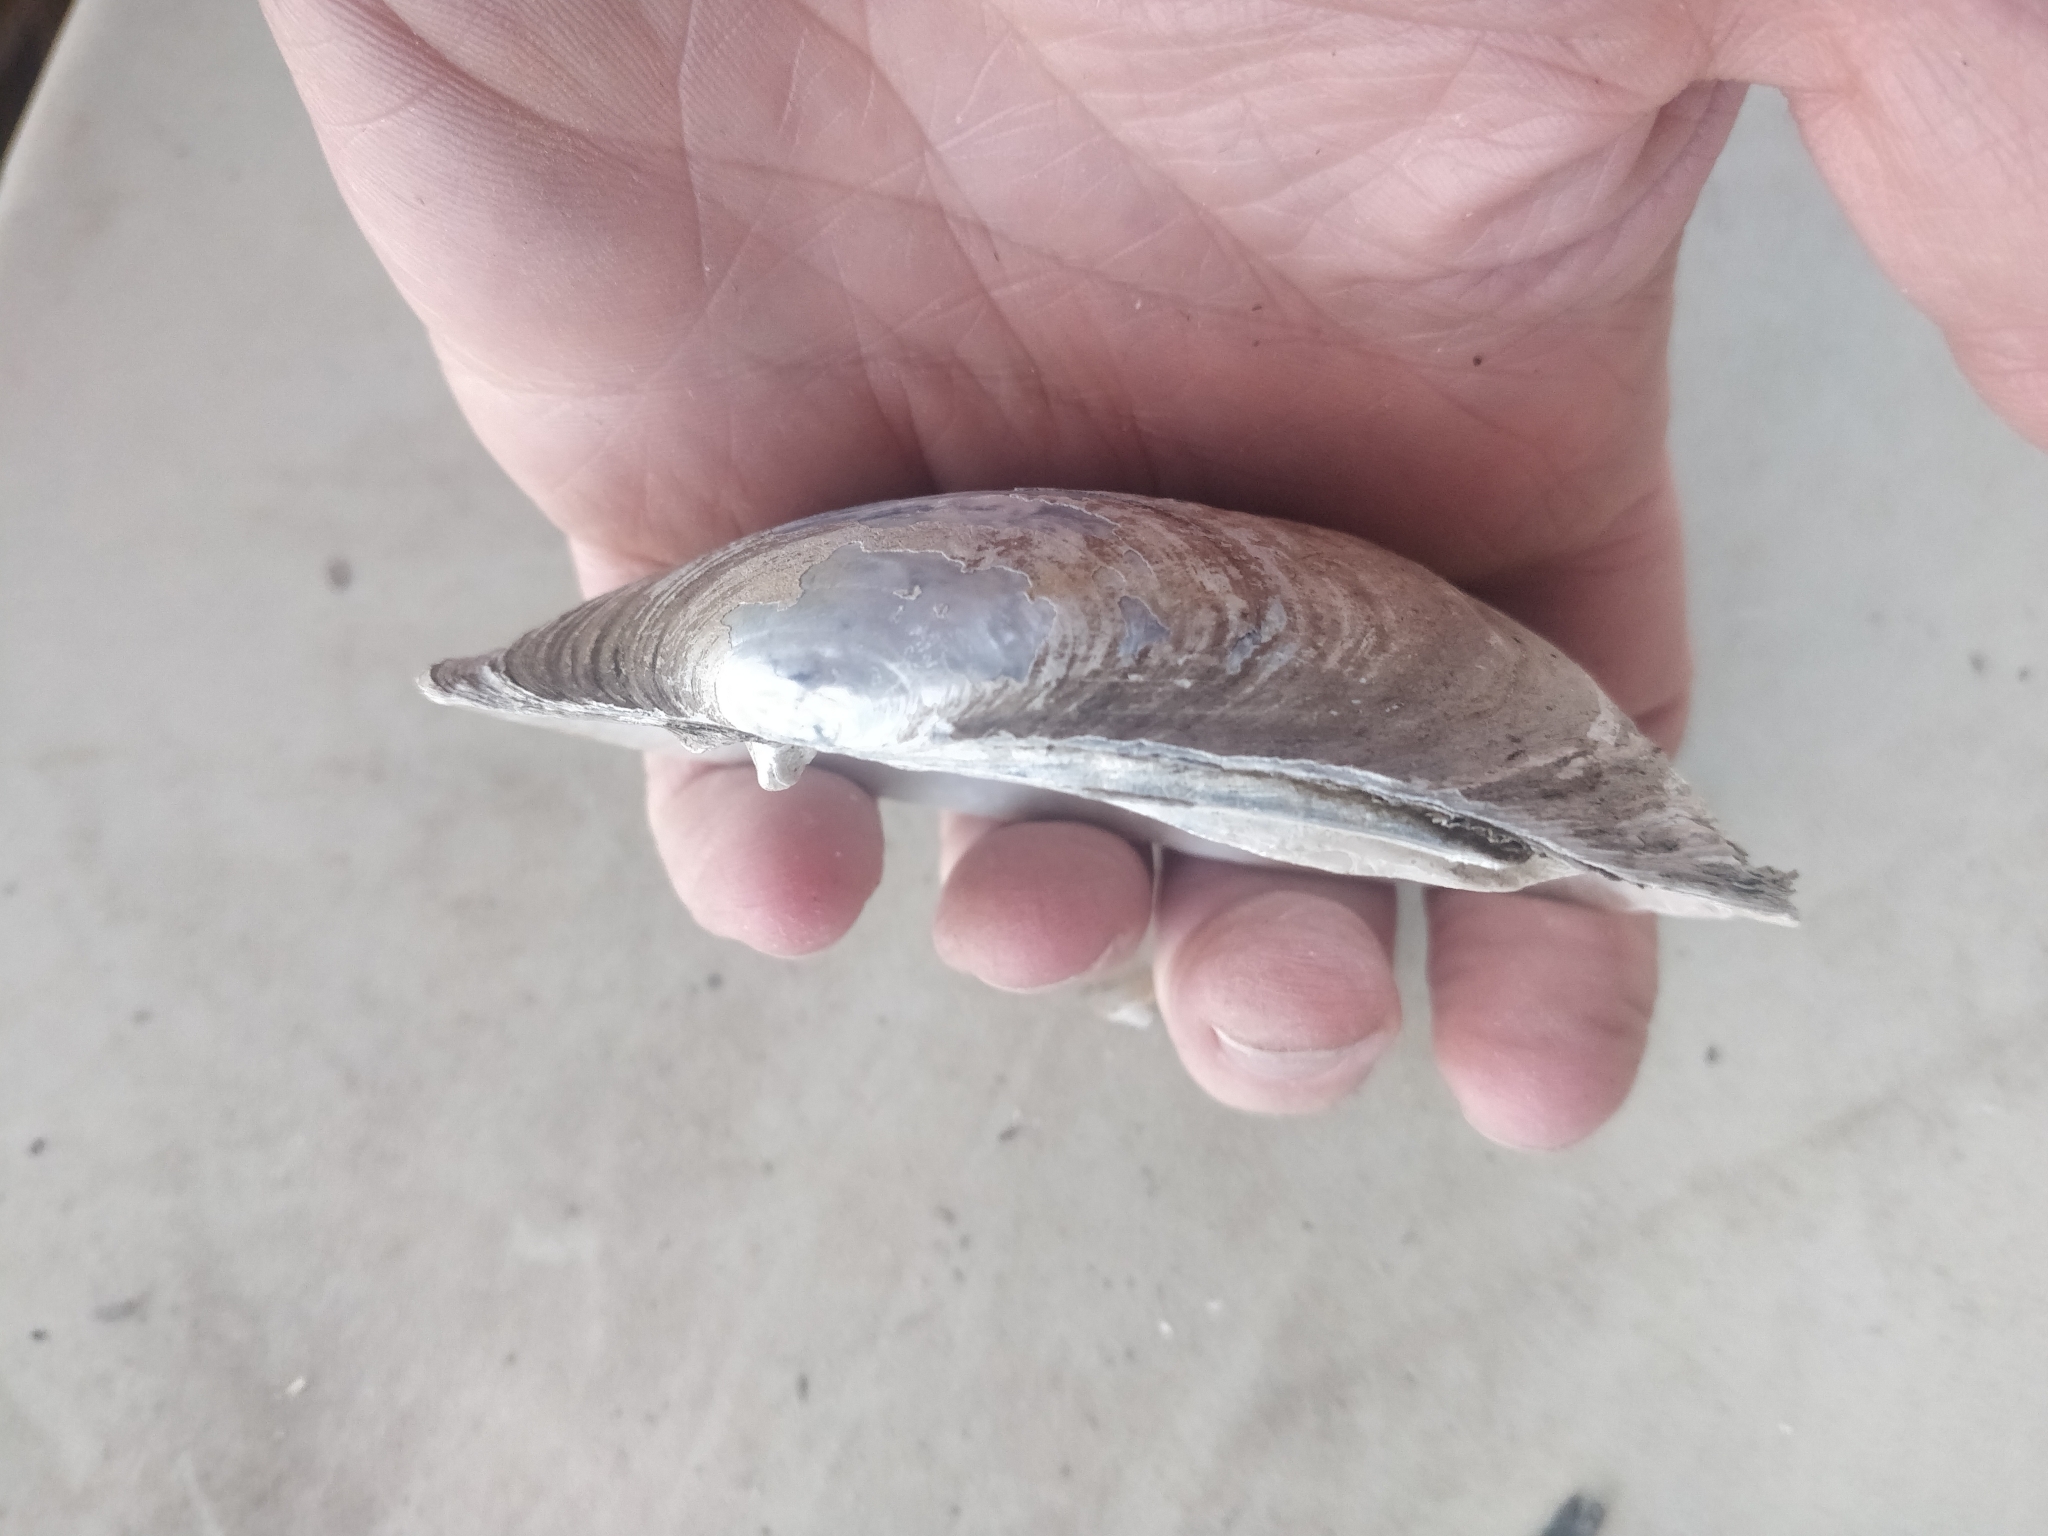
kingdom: Animalia
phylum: Mollusca
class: Bivalvia
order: Unionida
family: Unionidae
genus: Lampsilis
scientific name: Lampsilis siliquoidea
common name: Fatmucket
